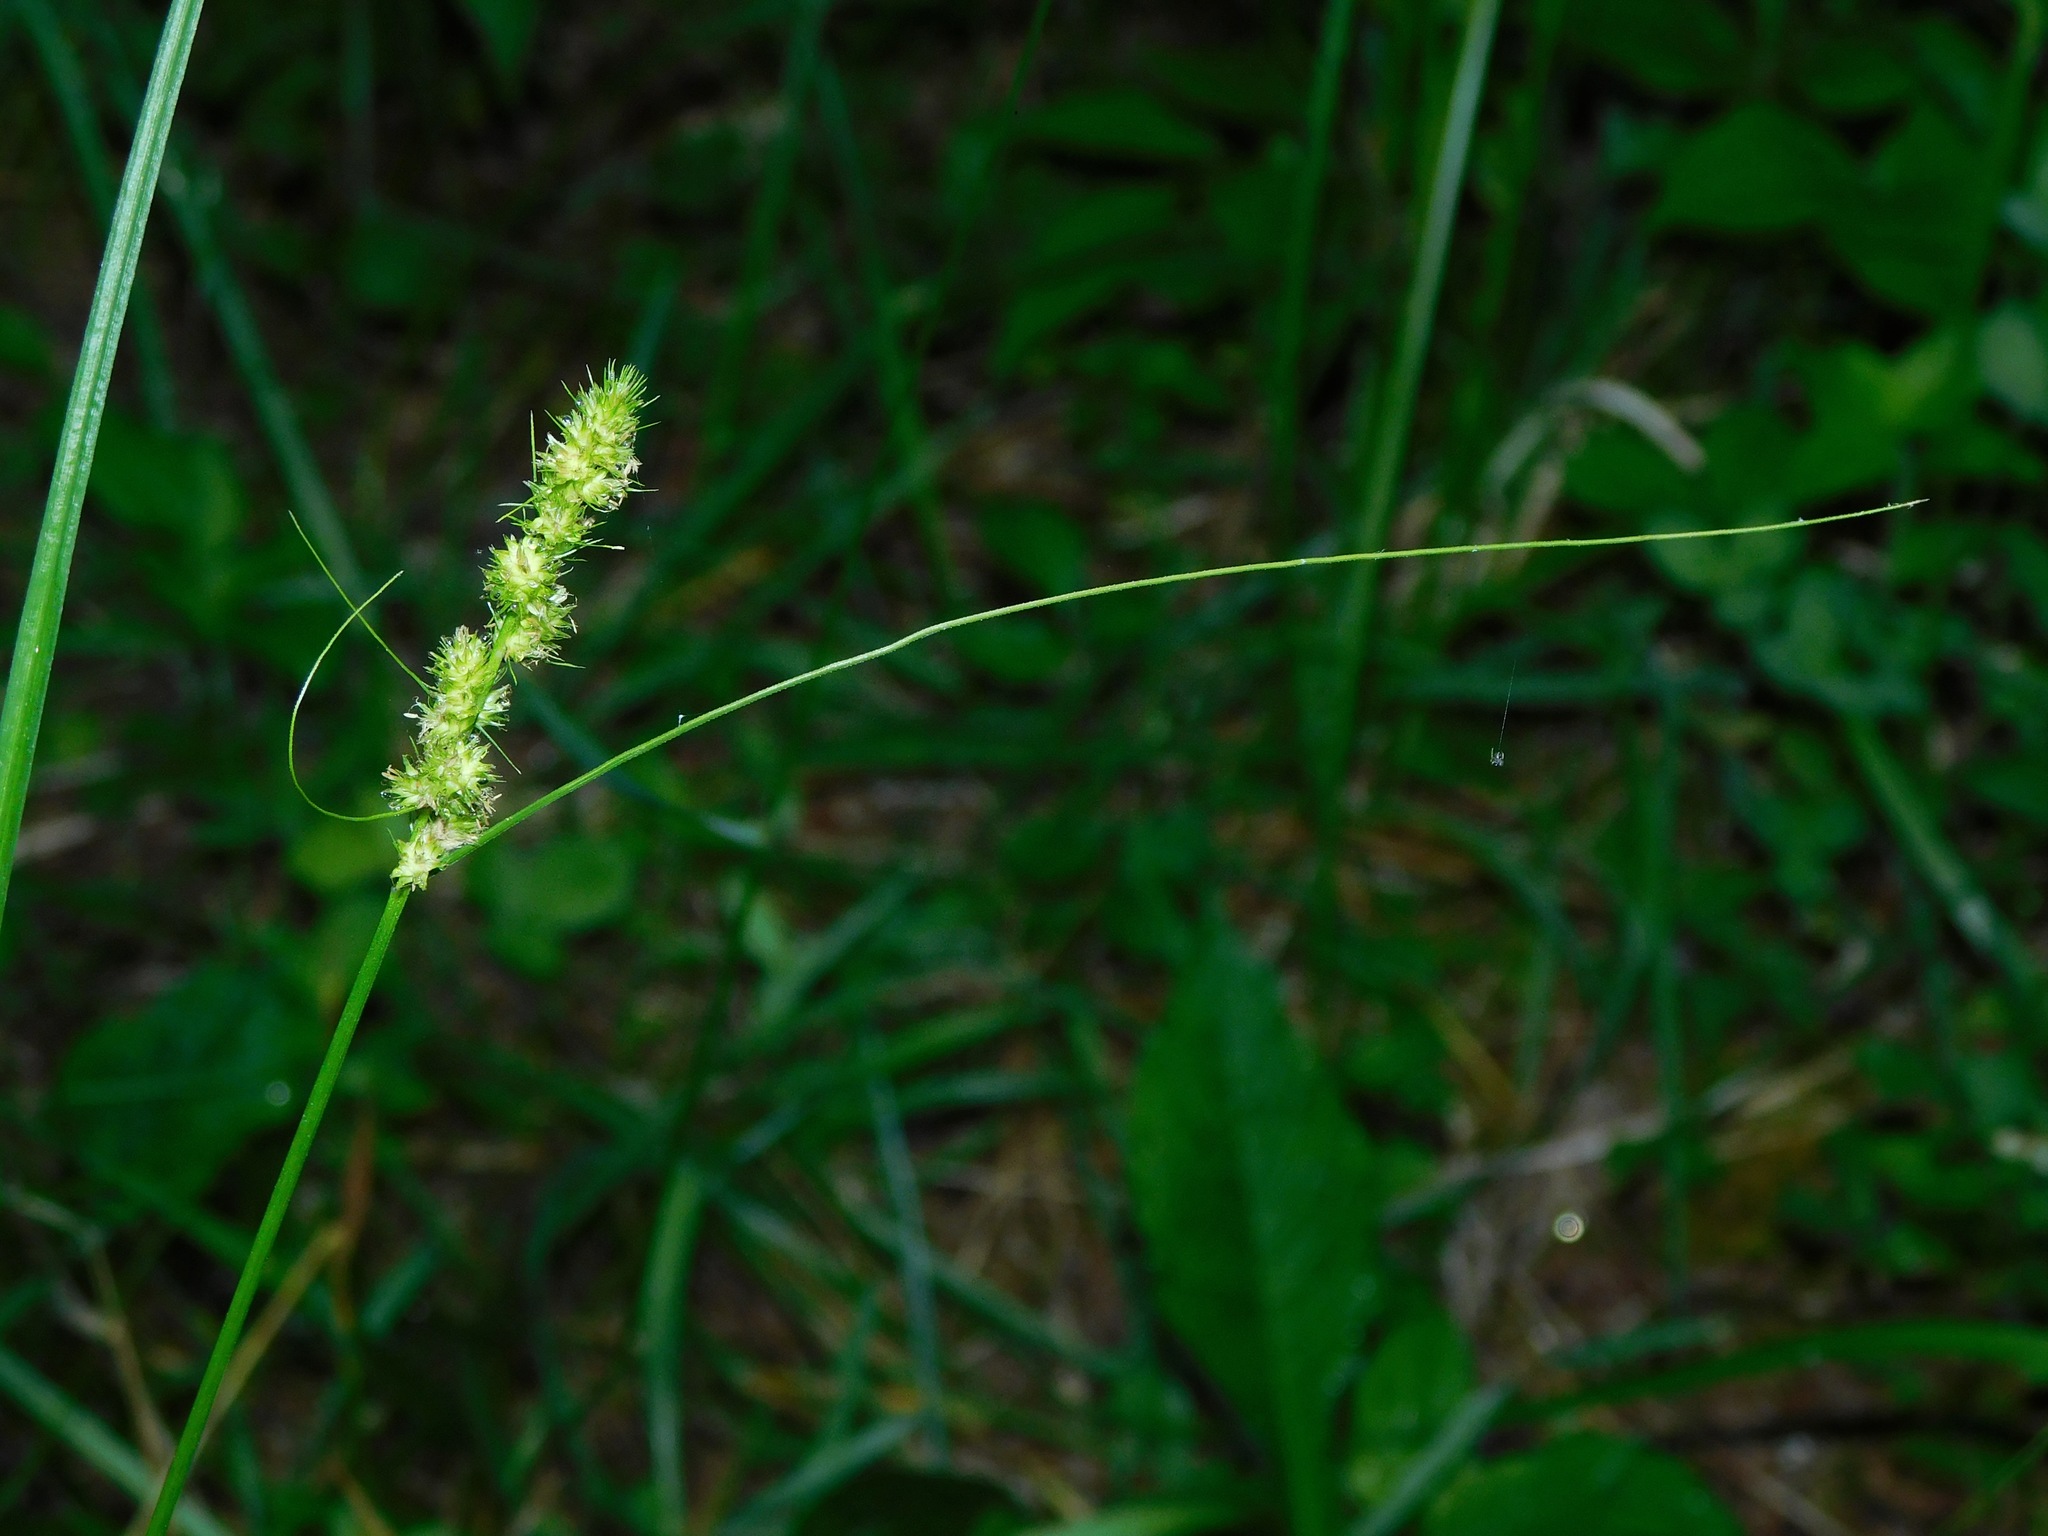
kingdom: Plantae
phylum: Tracheophyta
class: Liliopsida
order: Poales
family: Cyperaceae
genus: Carex
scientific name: Carex vulpinoidea
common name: American fox-sedge
